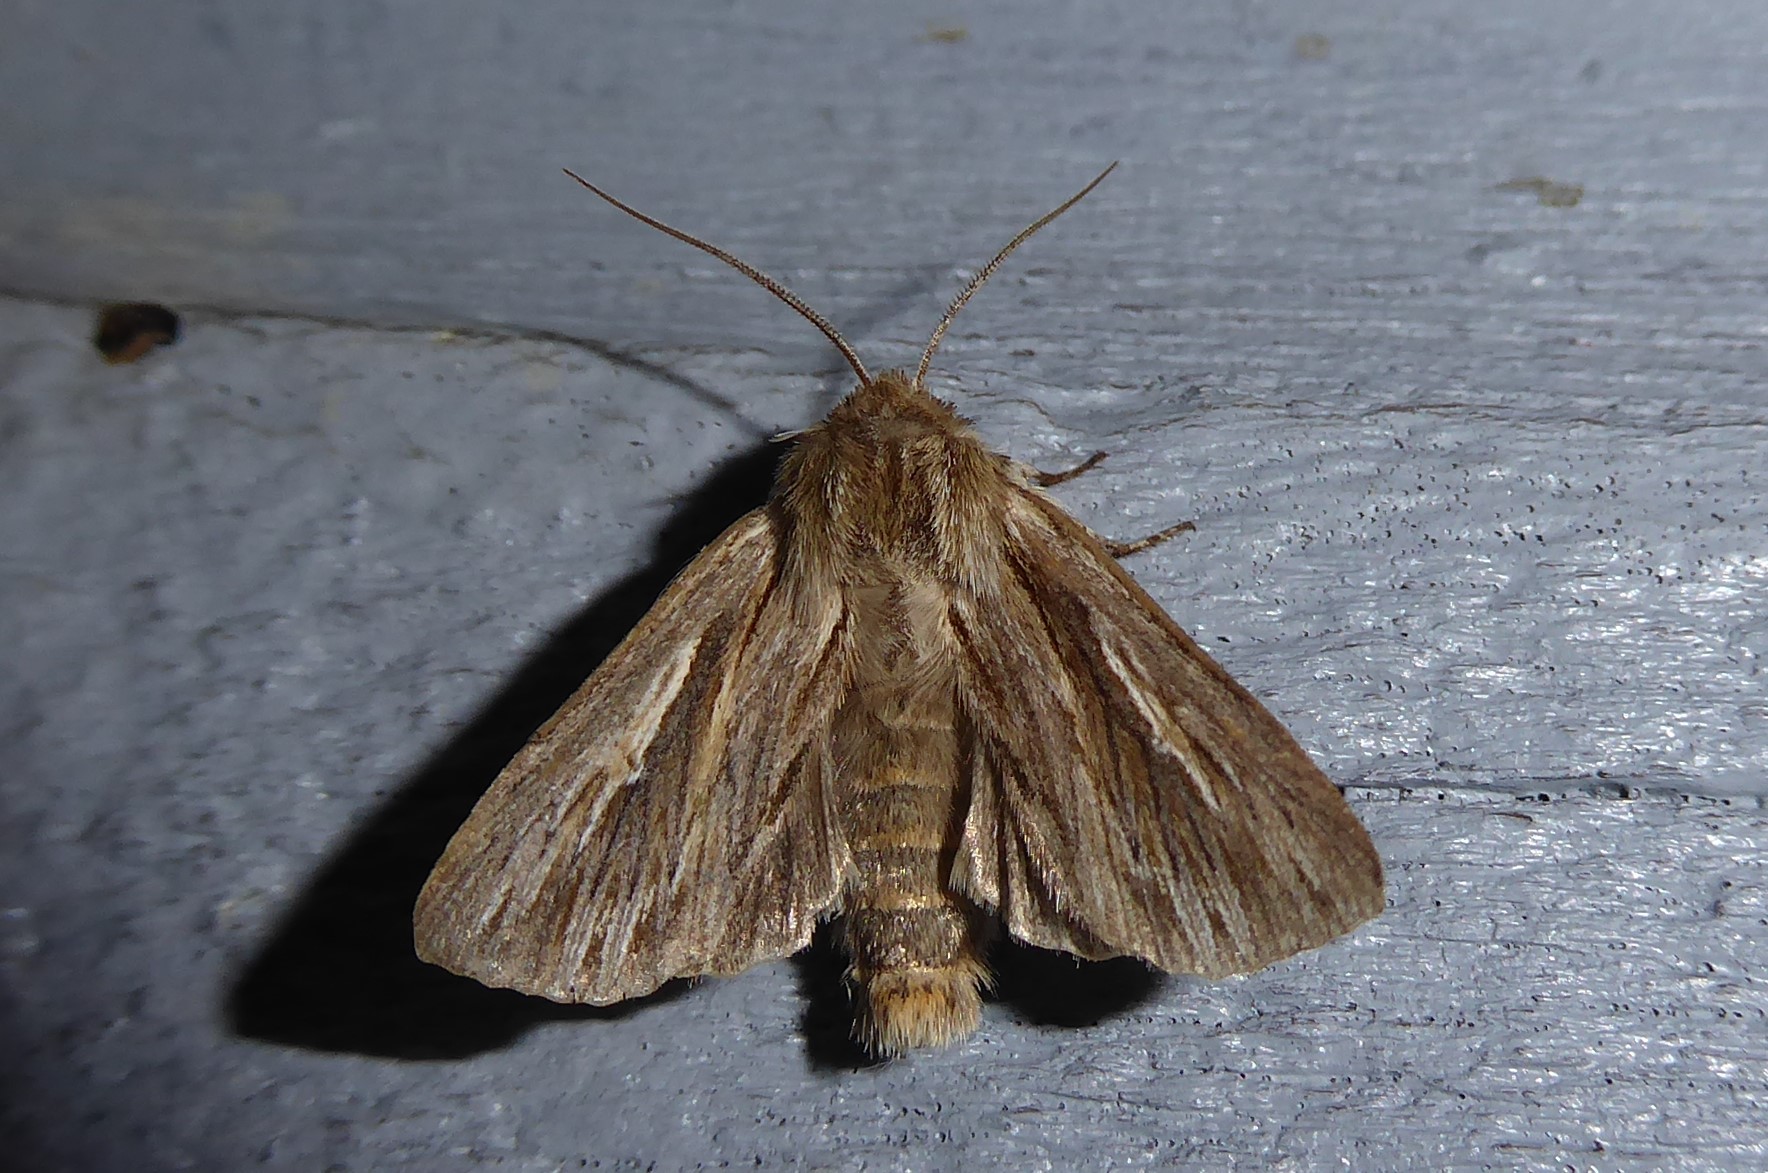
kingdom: Animalia
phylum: Arthropoda
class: Insecta
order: Lepidoptera
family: Noctuidae
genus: Persectania
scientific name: Persectania aversa
